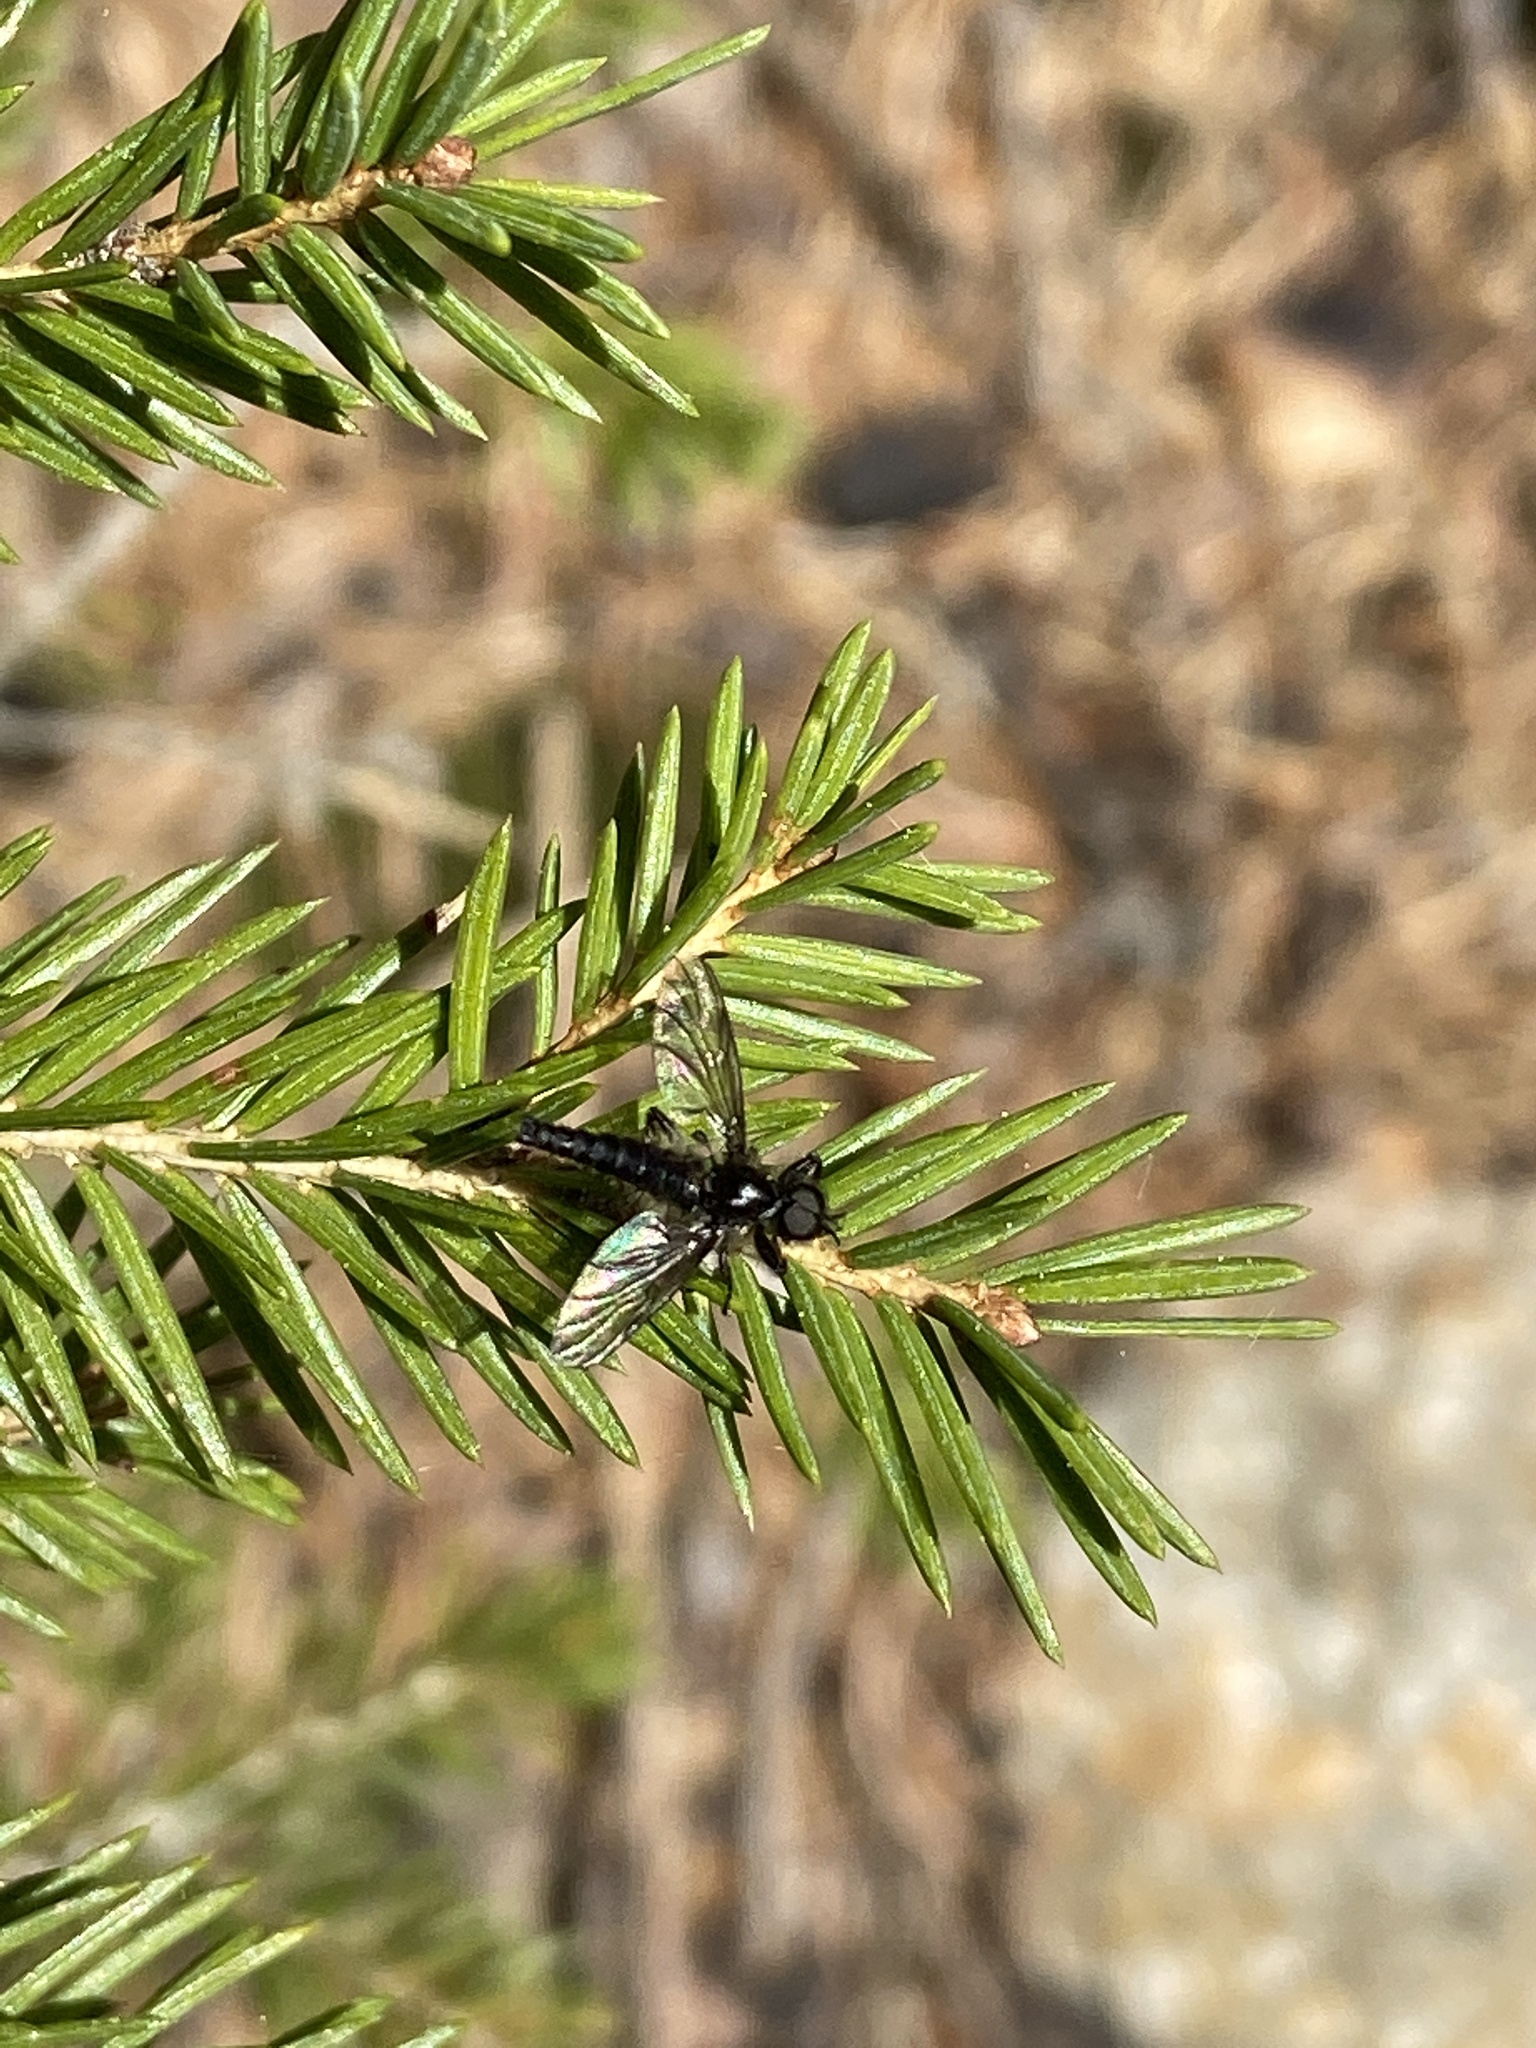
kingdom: Animalia
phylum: Arthropoda
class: Insecta
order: Diptera
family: Bibionidae
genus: Bibio
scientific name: Bibio lanigerus
